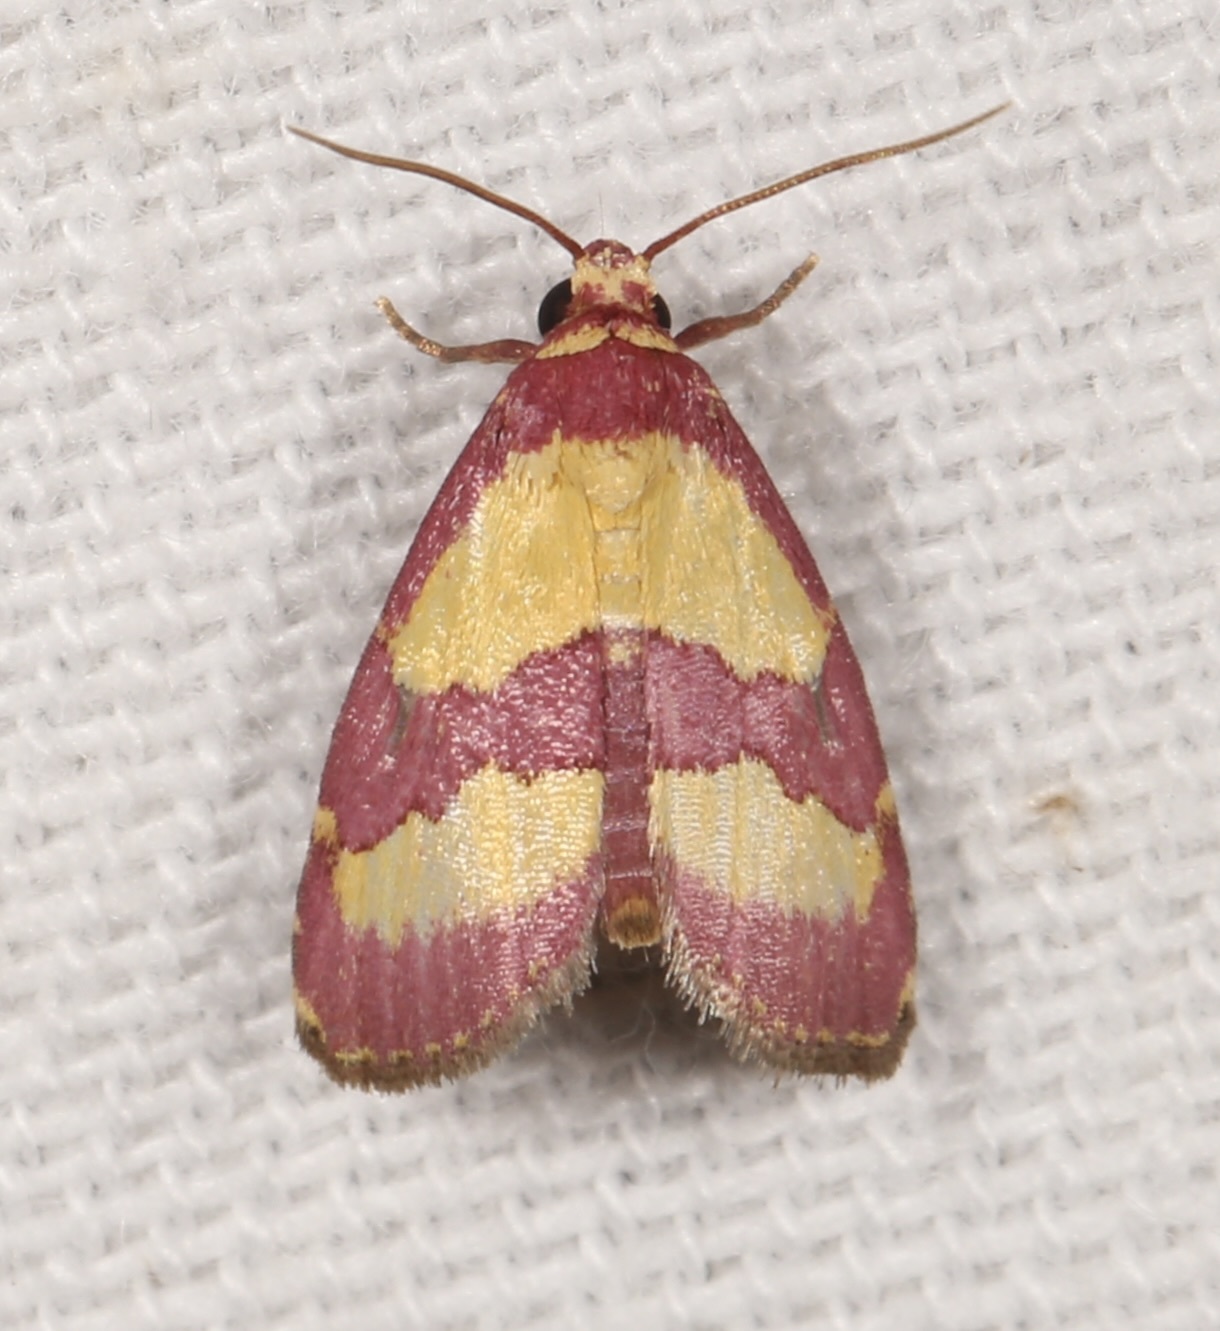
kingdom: Animalia
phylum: Arthropoda
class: Insecta
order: Lepidoptera
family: Noctuidae
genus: Phoenicophanta
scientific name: Phoenicophanta bicolor
